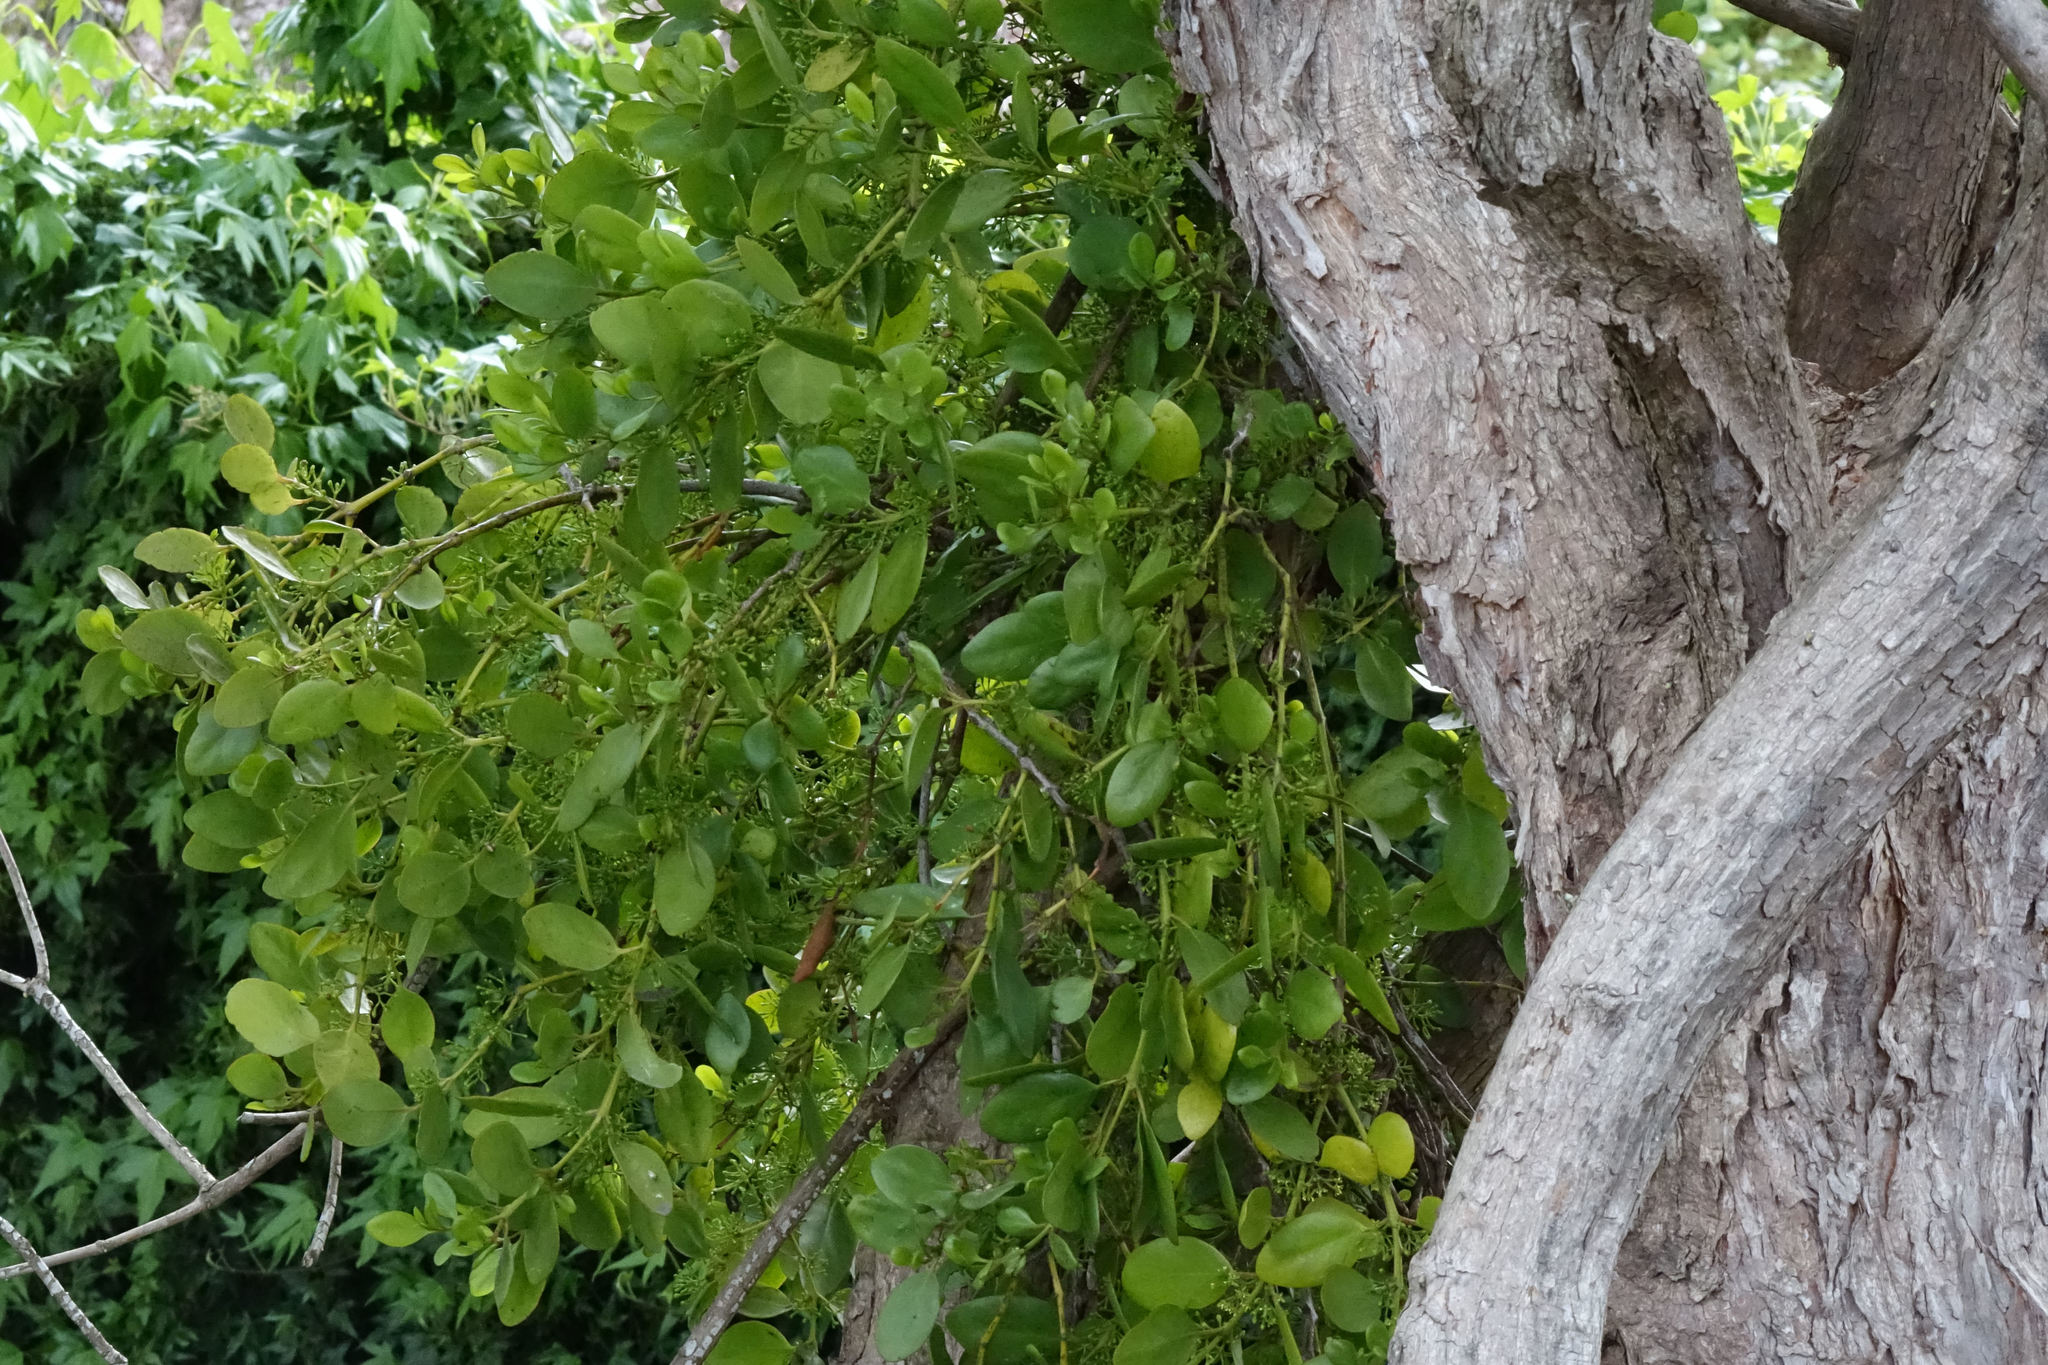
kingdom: Plantae
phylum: Tracheophyta
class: Magnoliopsida
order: Santalales
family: Loranthaceae
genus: Ileostylus
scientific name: Ileostylus micranthus
